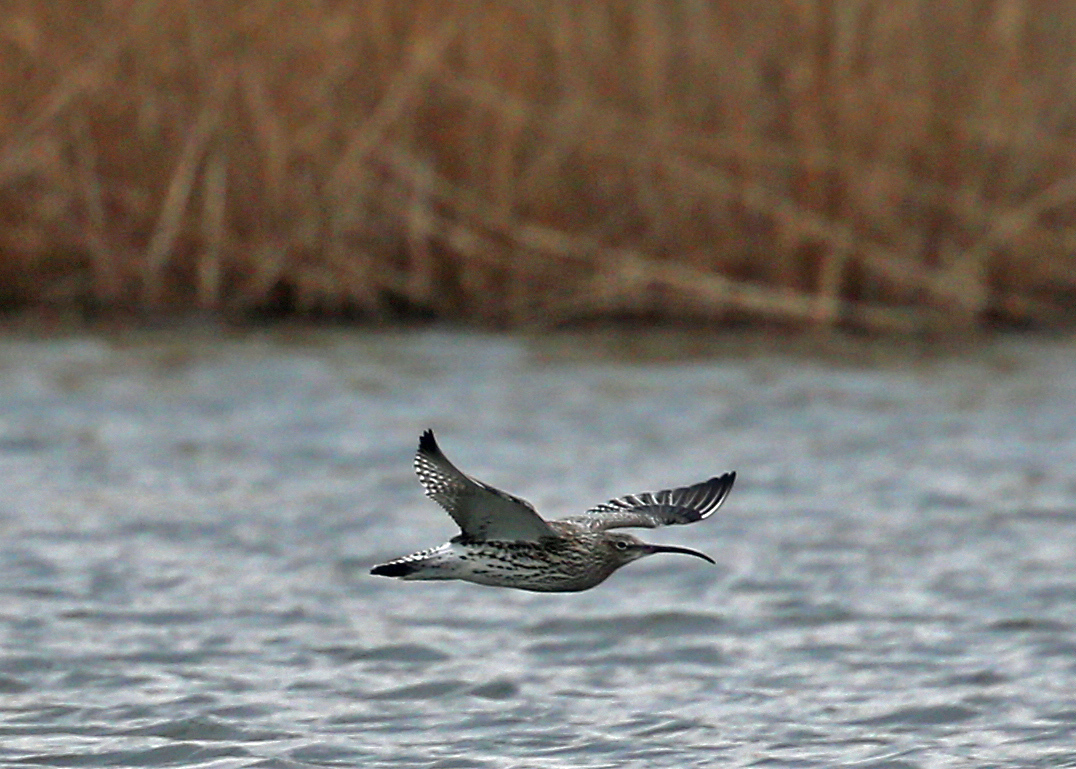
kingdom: Animalia
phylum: Chordata
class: Aves
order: Charadriiformes
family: Scolopacidae
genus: Numenius
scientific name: Numenius arquata
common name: Eurasian curlew
